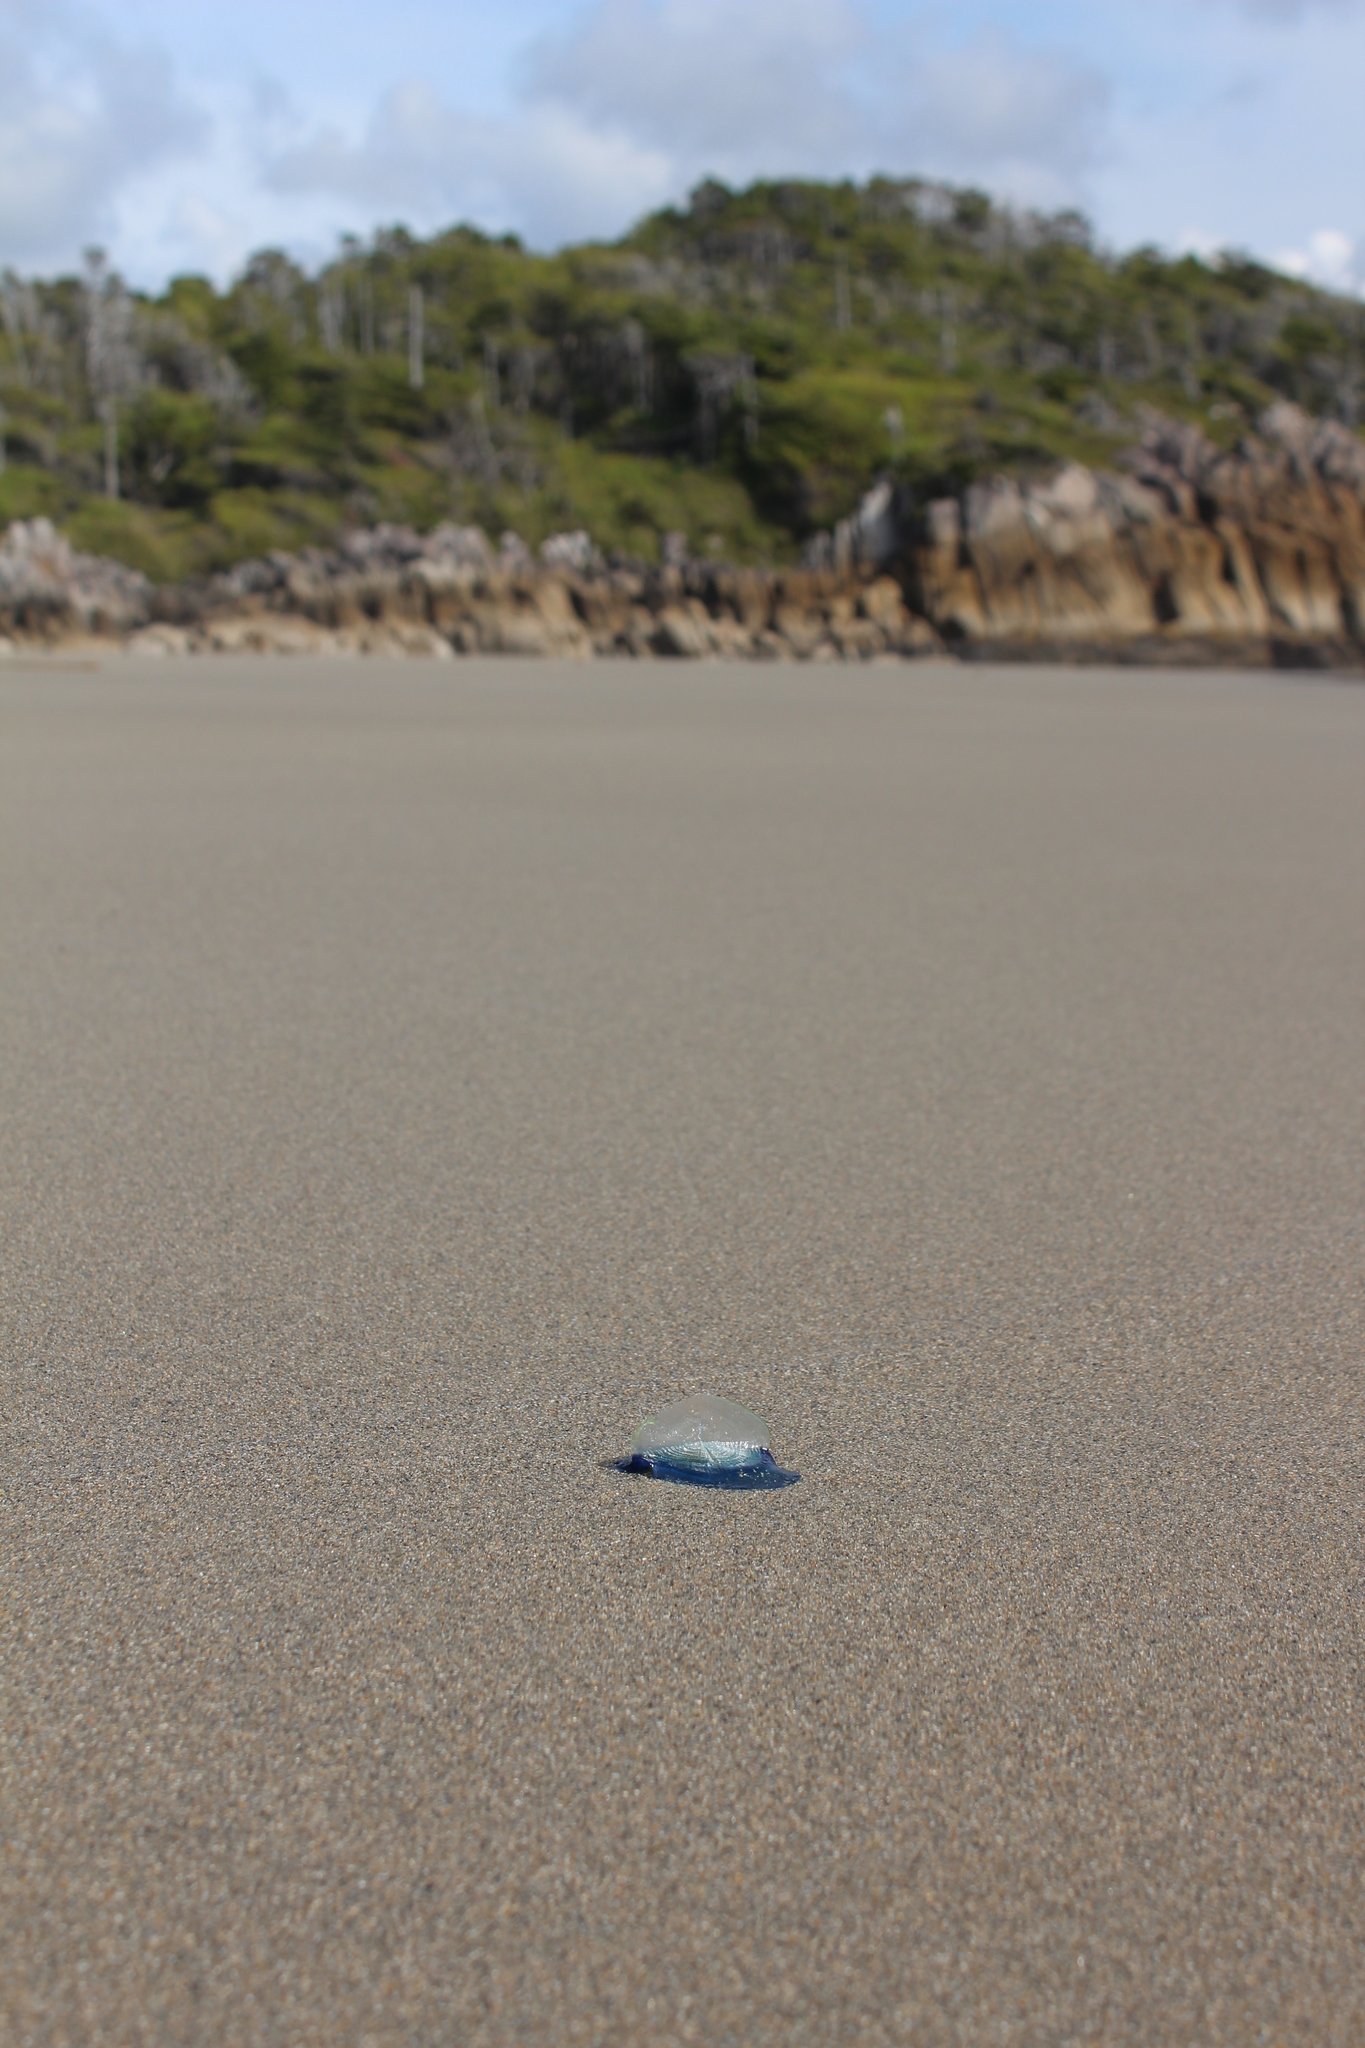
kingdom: Animalia
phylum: Cnidaria
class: Hydrozoa
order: Anthoathecata
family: Porpitidae
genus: Velella
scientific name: Velella velella
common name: By-the-wind-sailor
